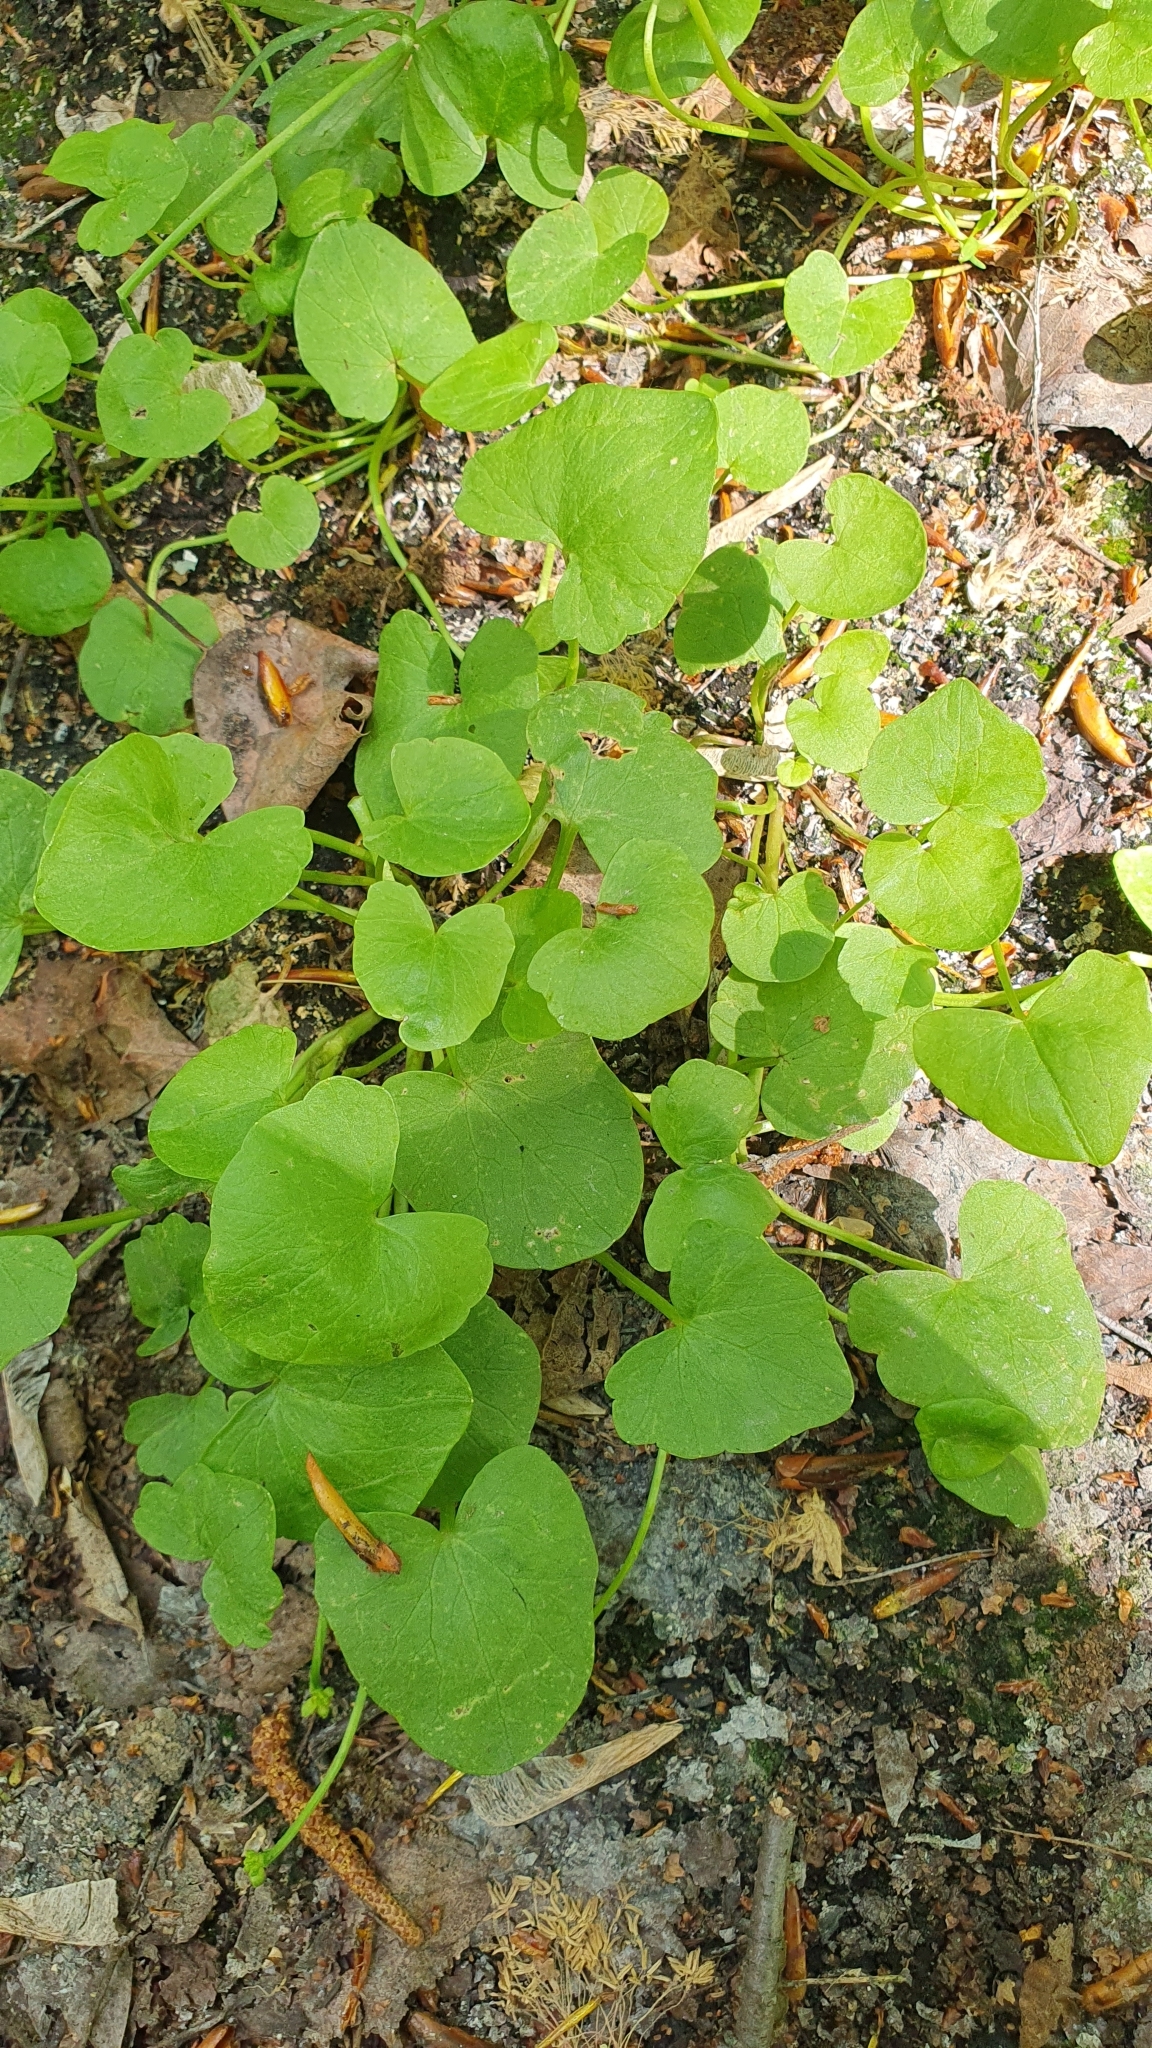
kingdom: Plantae
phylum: Tracheophyta
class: Magnoliopsida
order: Ranunculales
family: Ranunculaceae
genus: Ficaria
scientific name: Ficaria verna
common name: Lesser celandine
